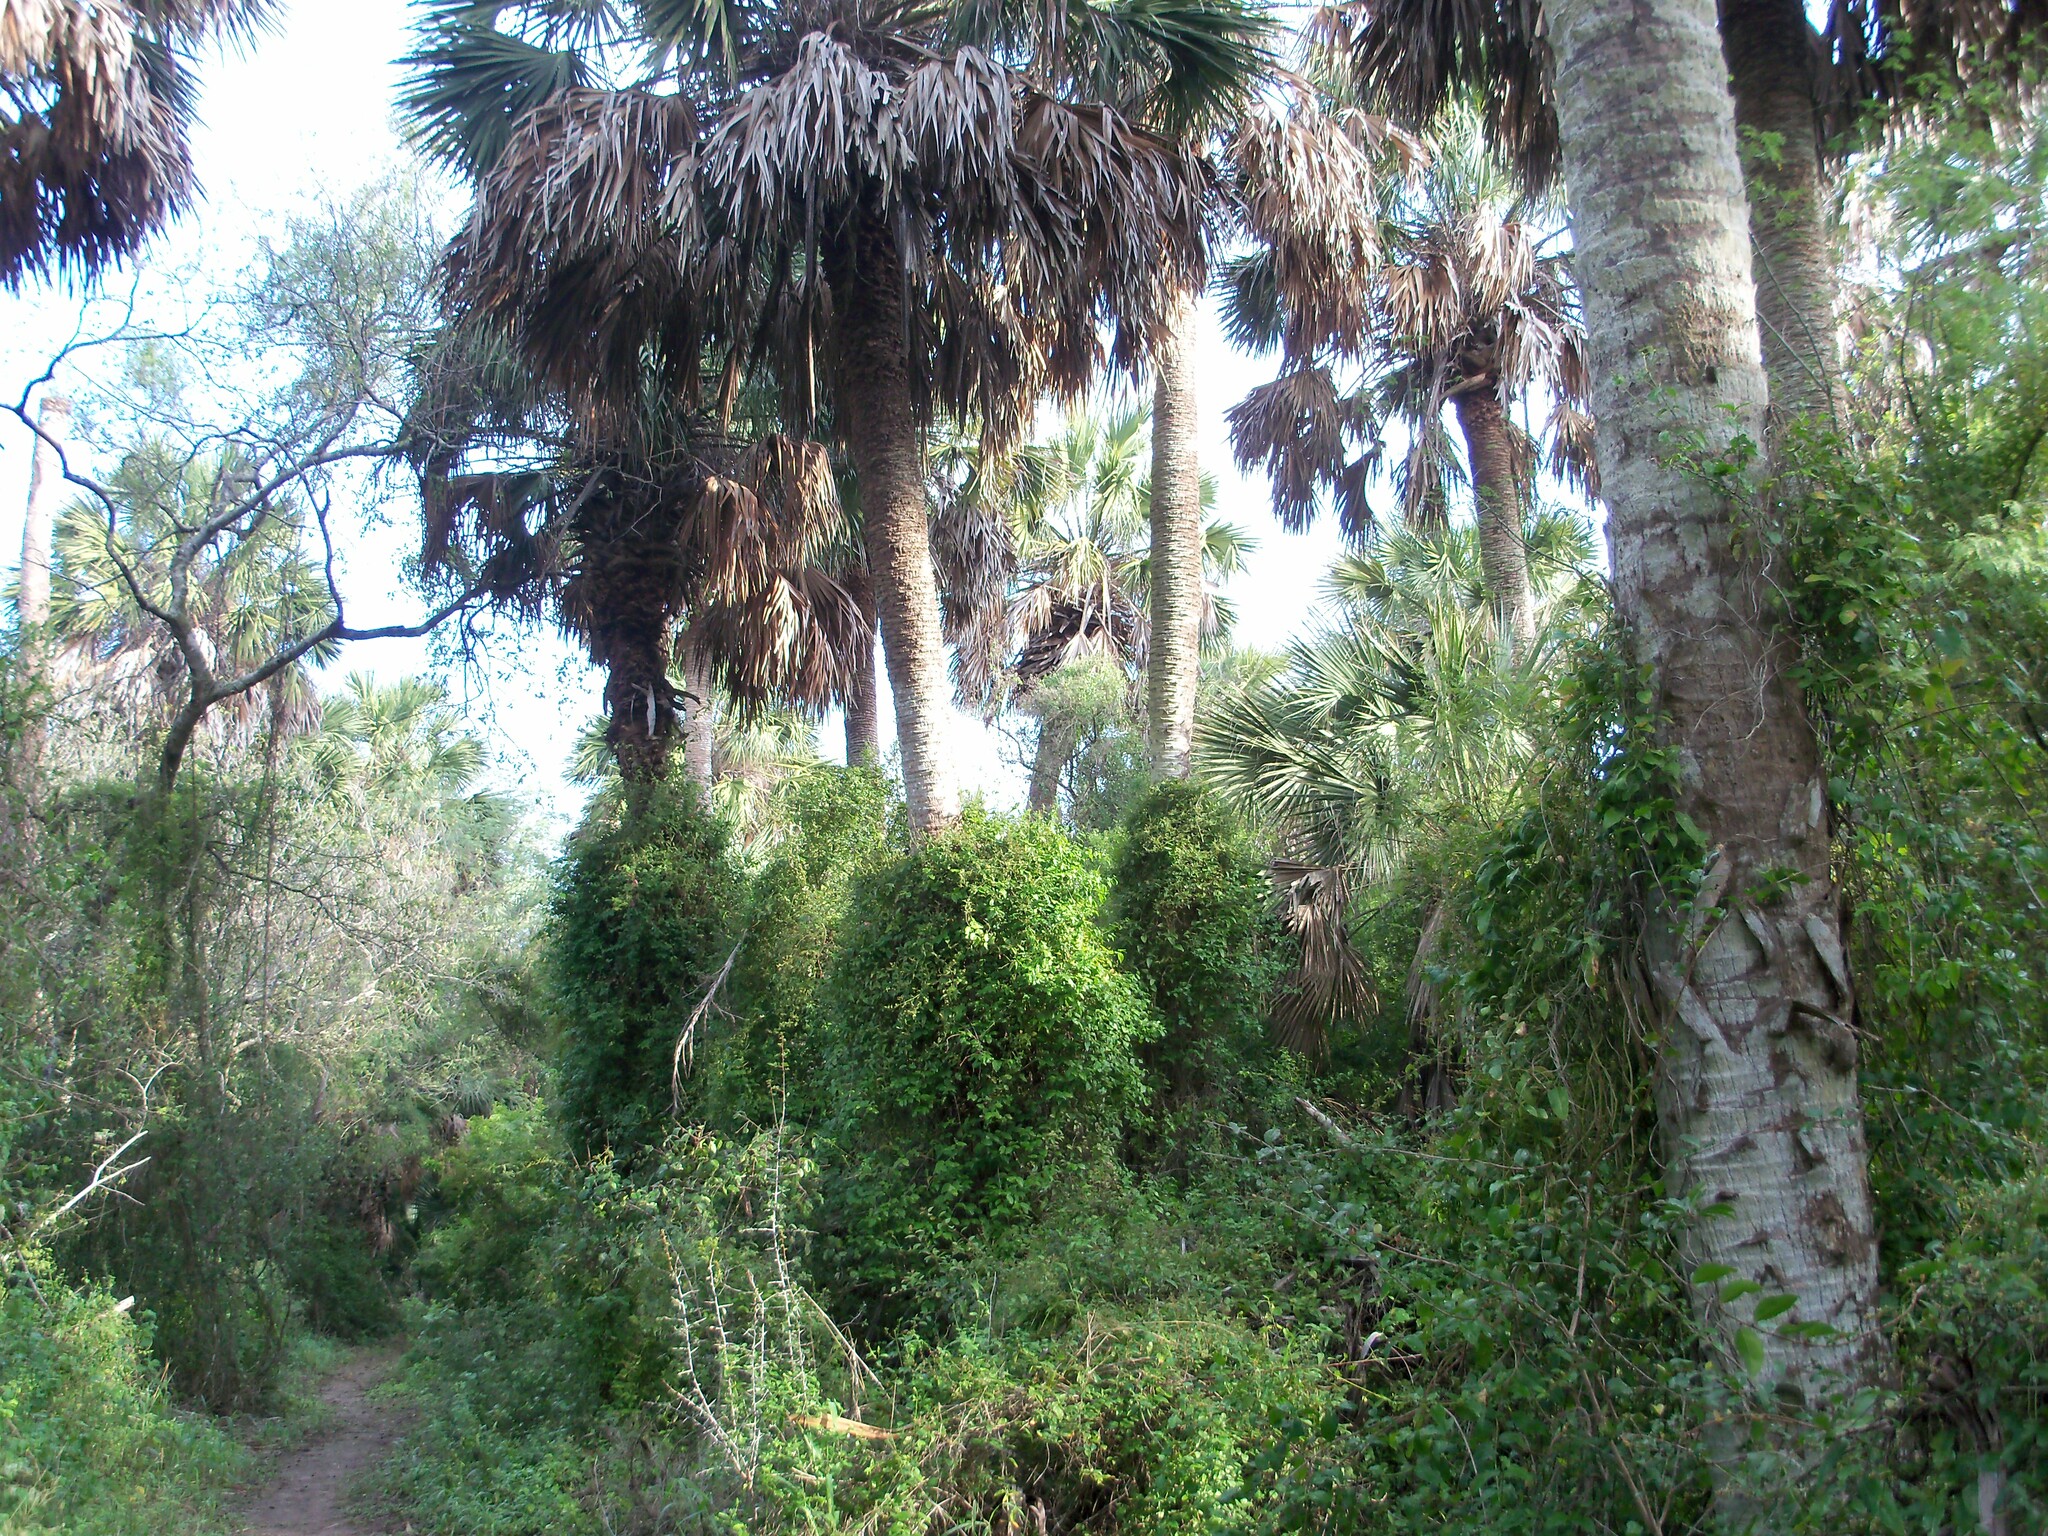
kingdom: Plantae
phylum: Tracheophyta
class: Liliopsida
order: Arecales
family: Arecaceae
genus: Sabal
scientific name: Sabal mexicana
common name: Texas palmetto
